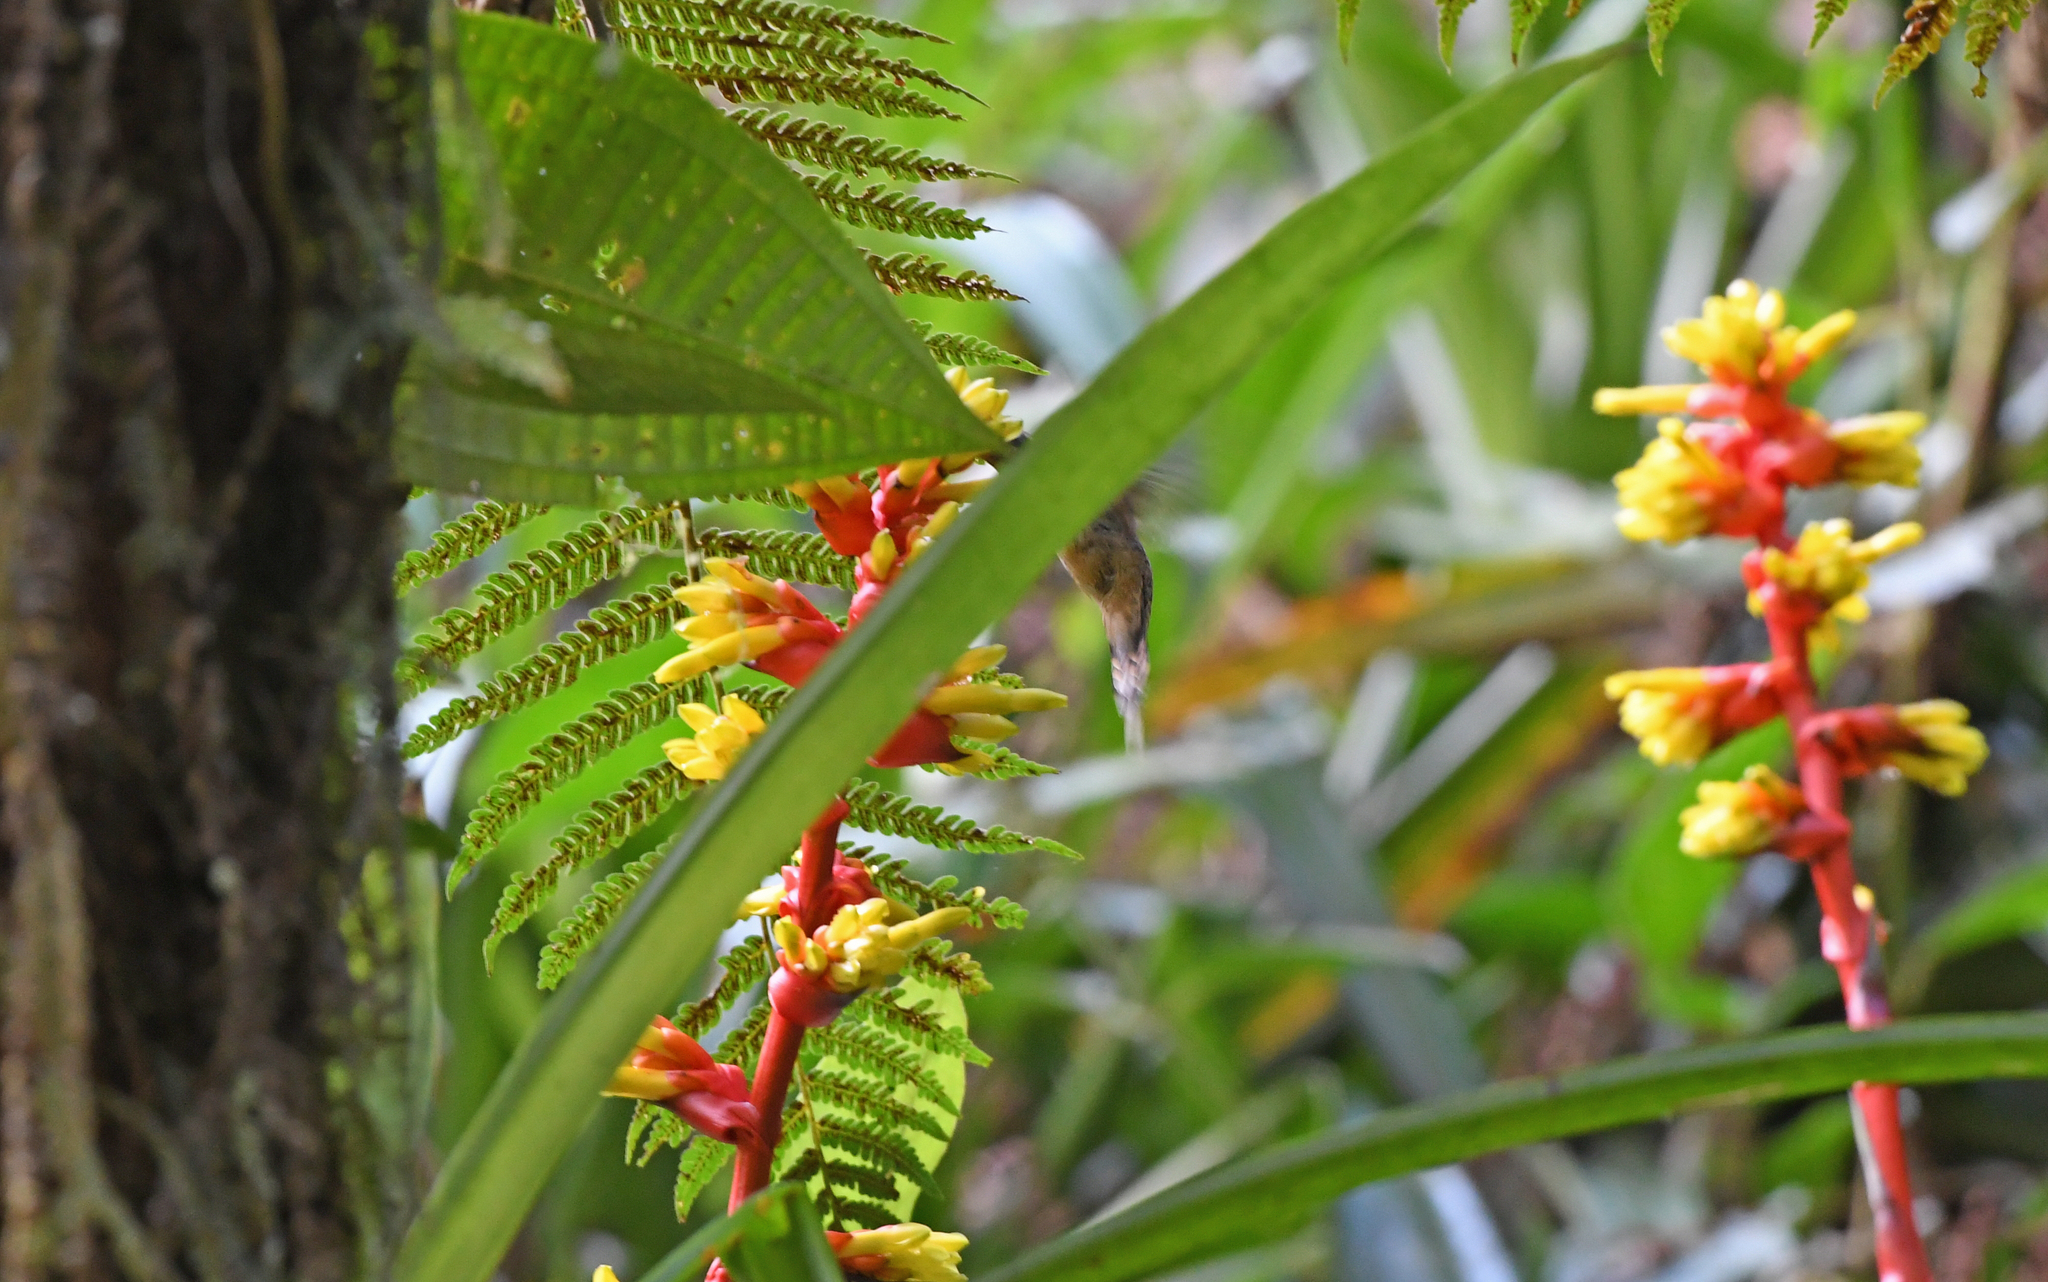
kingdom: Animalia
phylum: Chordata
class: Aves
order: Apodiformes
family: Trochilidae
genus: Phaethornis
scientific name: Phaethornis koepckeae
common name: Koepcke's hermit
